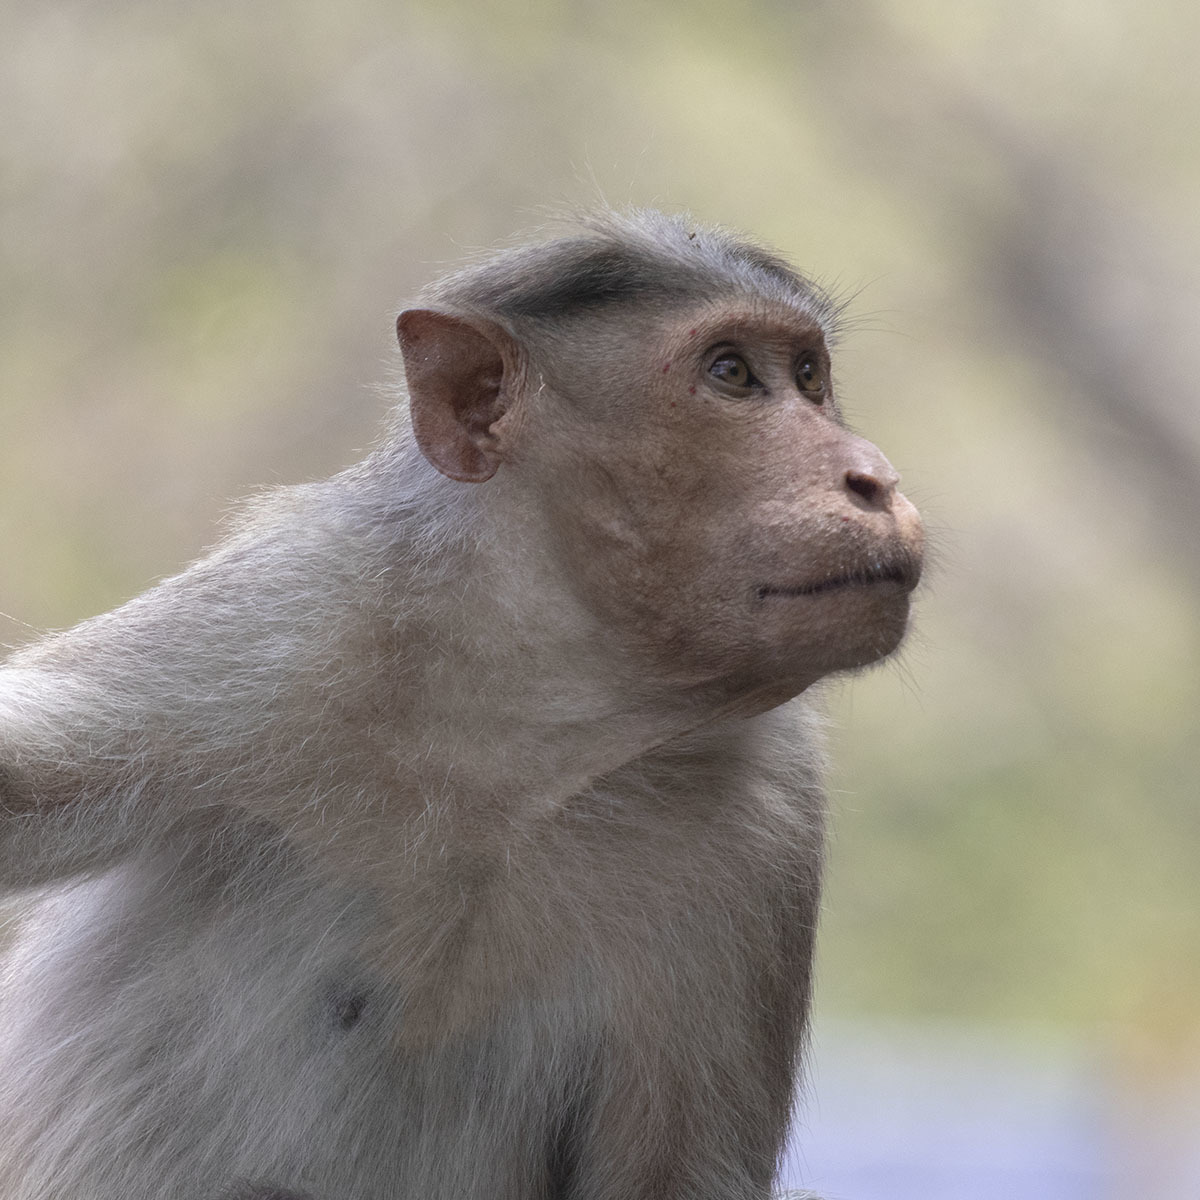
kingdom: Animalia
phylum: Chordata
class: Mammalia
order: Primates
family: Cercopithecidae
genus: Macaca
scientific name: Macaca radiata
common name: Bonnet macaque
